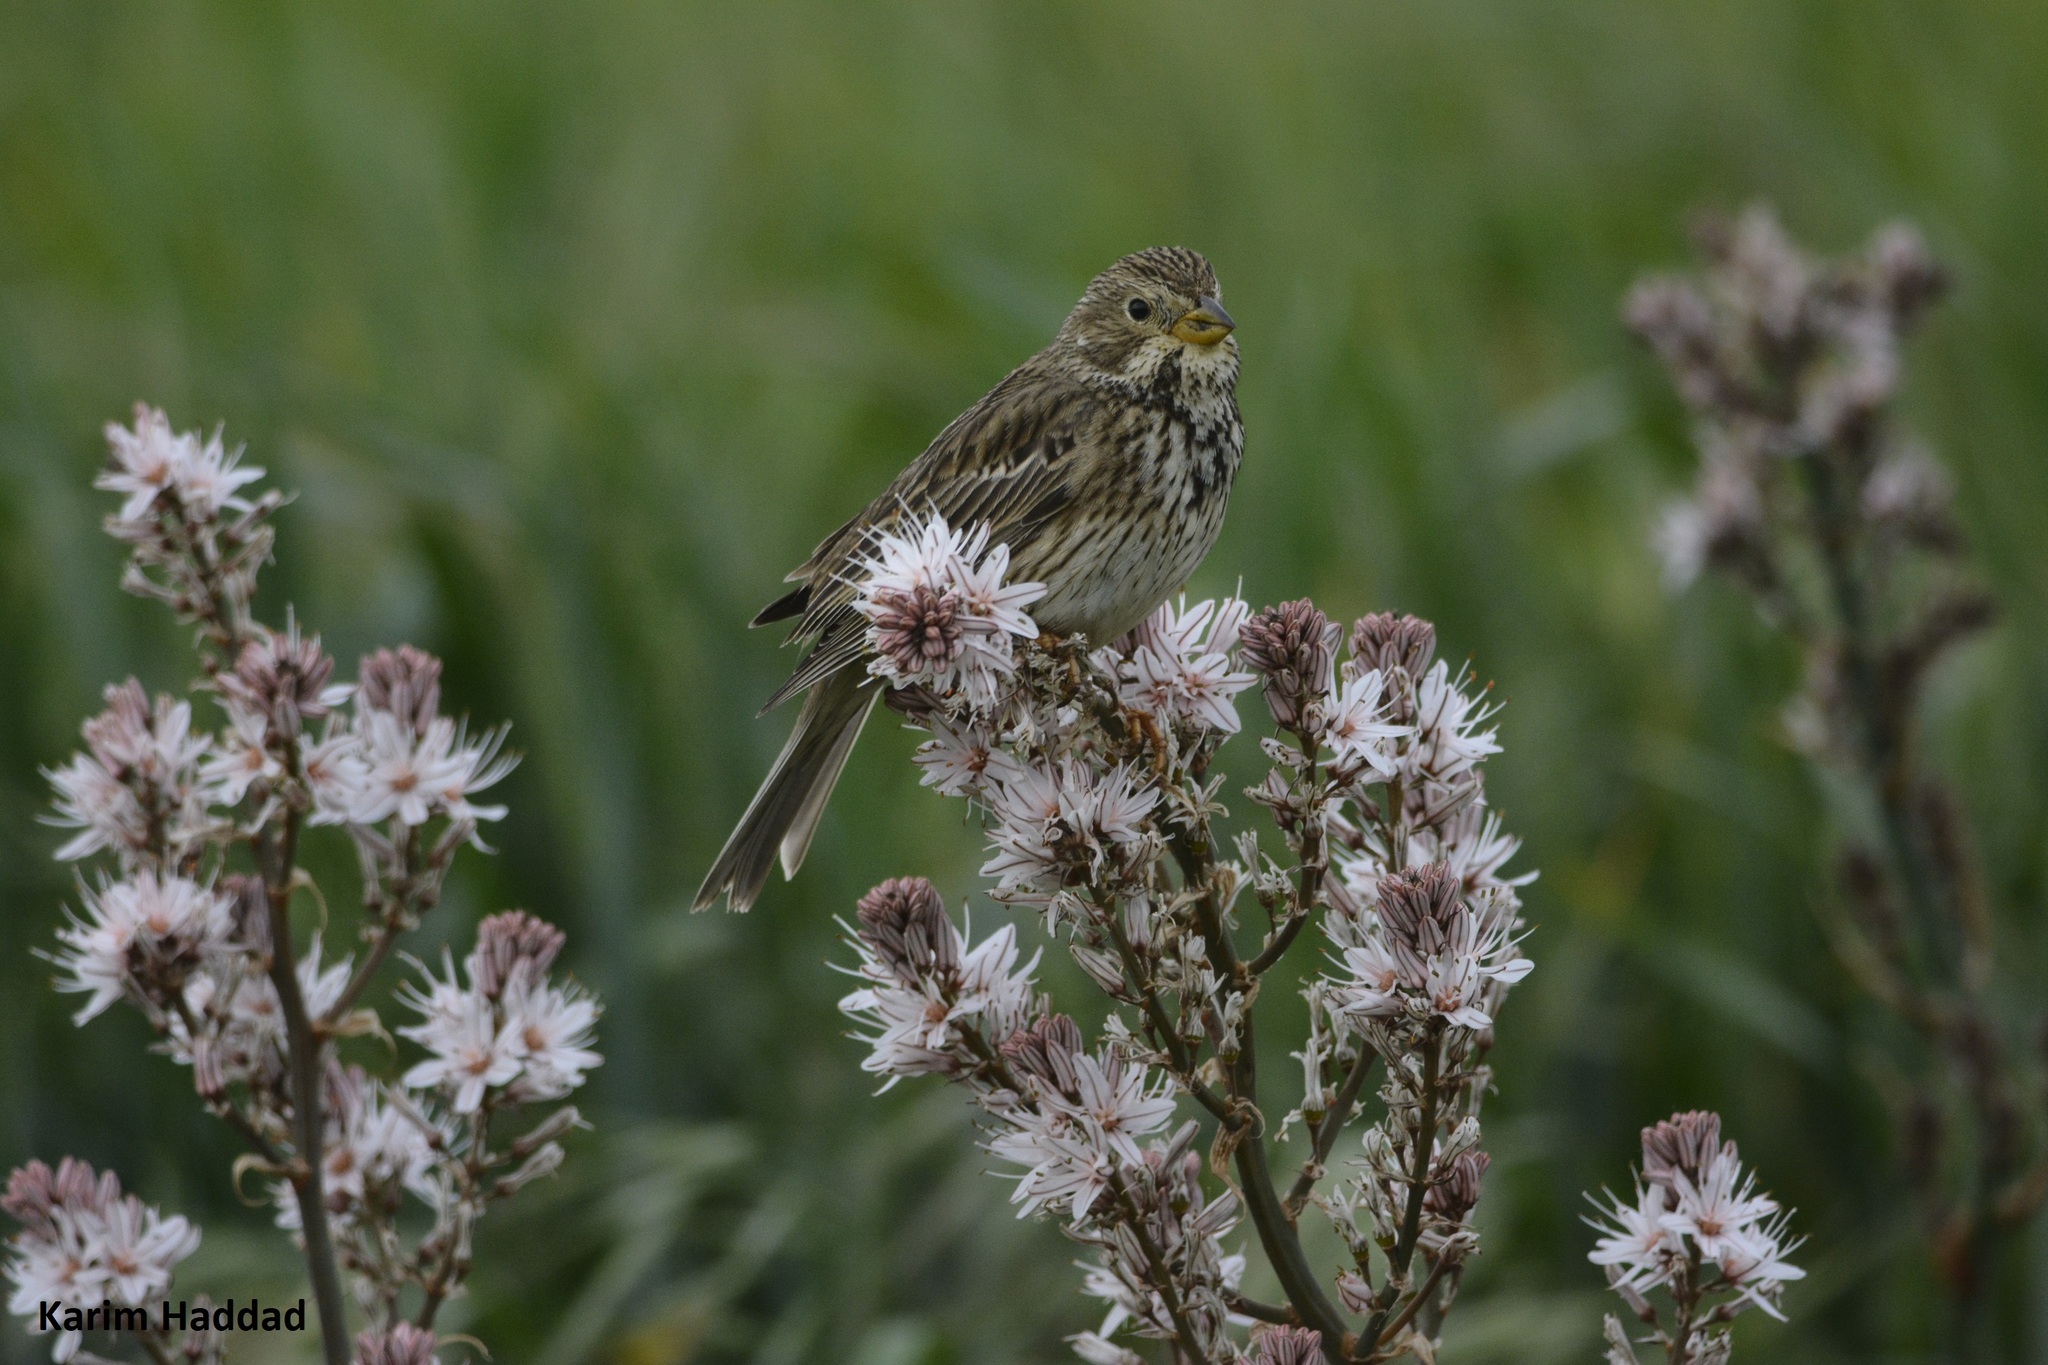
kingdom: Animalia
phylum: Chordata
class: Aves
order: Passeriformes
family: Emberizidae
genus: Emberiza
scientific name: Emberiza calandra
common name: Corn bunting
